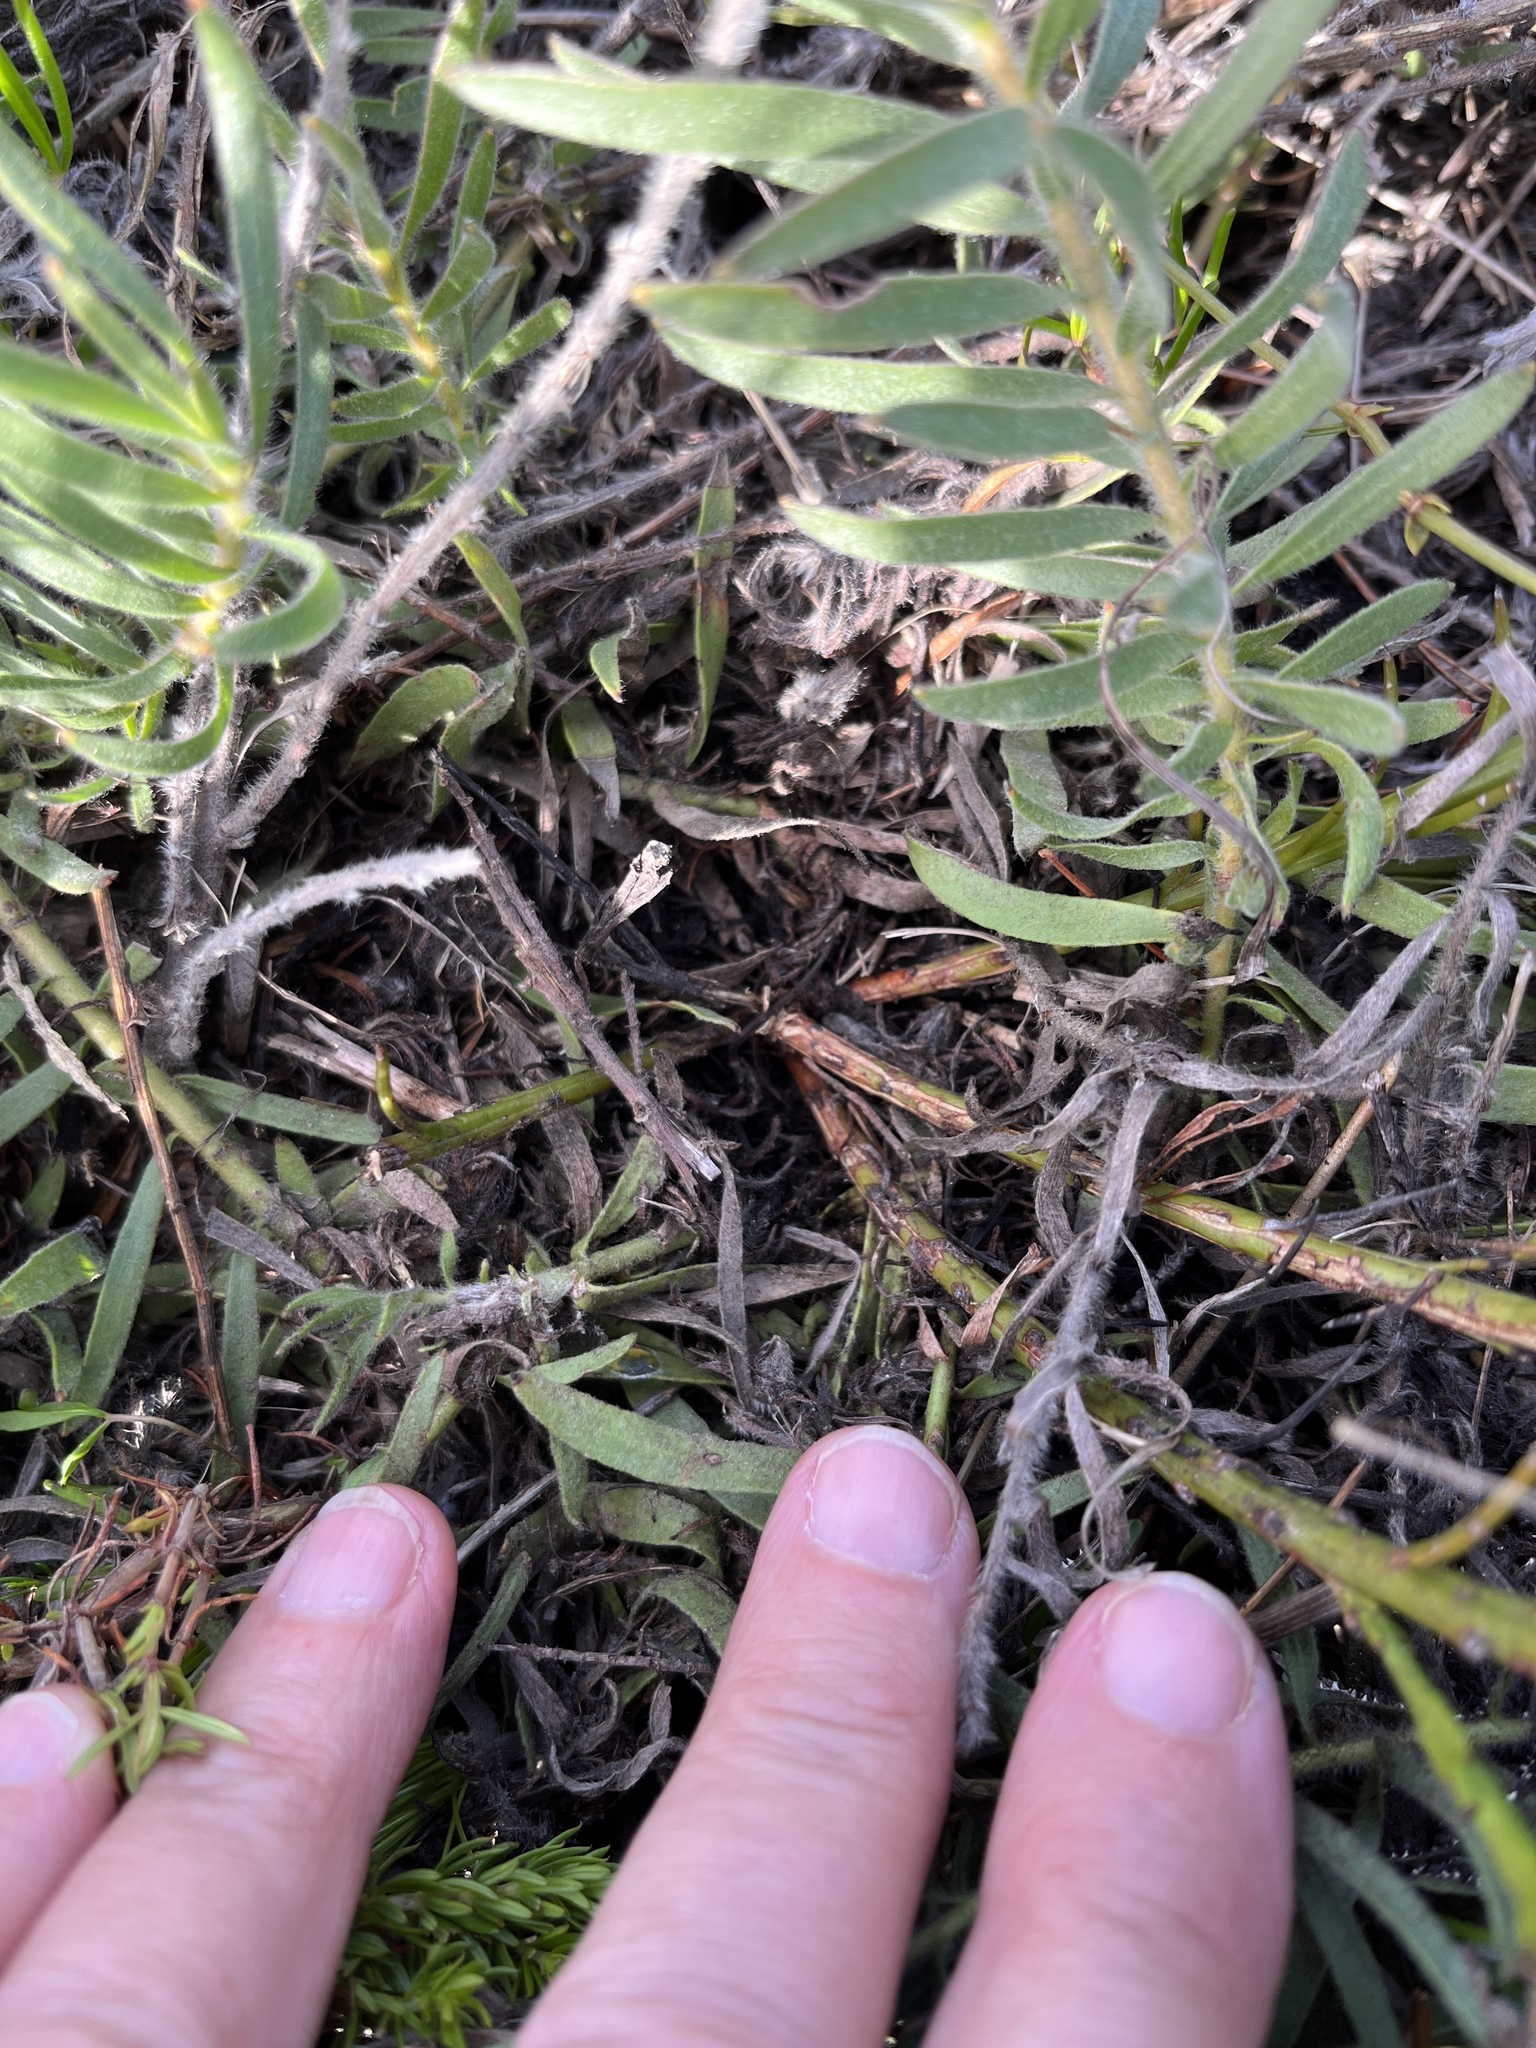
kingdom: Plantae
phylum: Tracheophyta
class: Magnoliopsida
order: Proteales
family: Proteaceae
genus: Leucospermum
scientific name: Leucospermum prostratum
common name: Yellow-trailing pincushion
